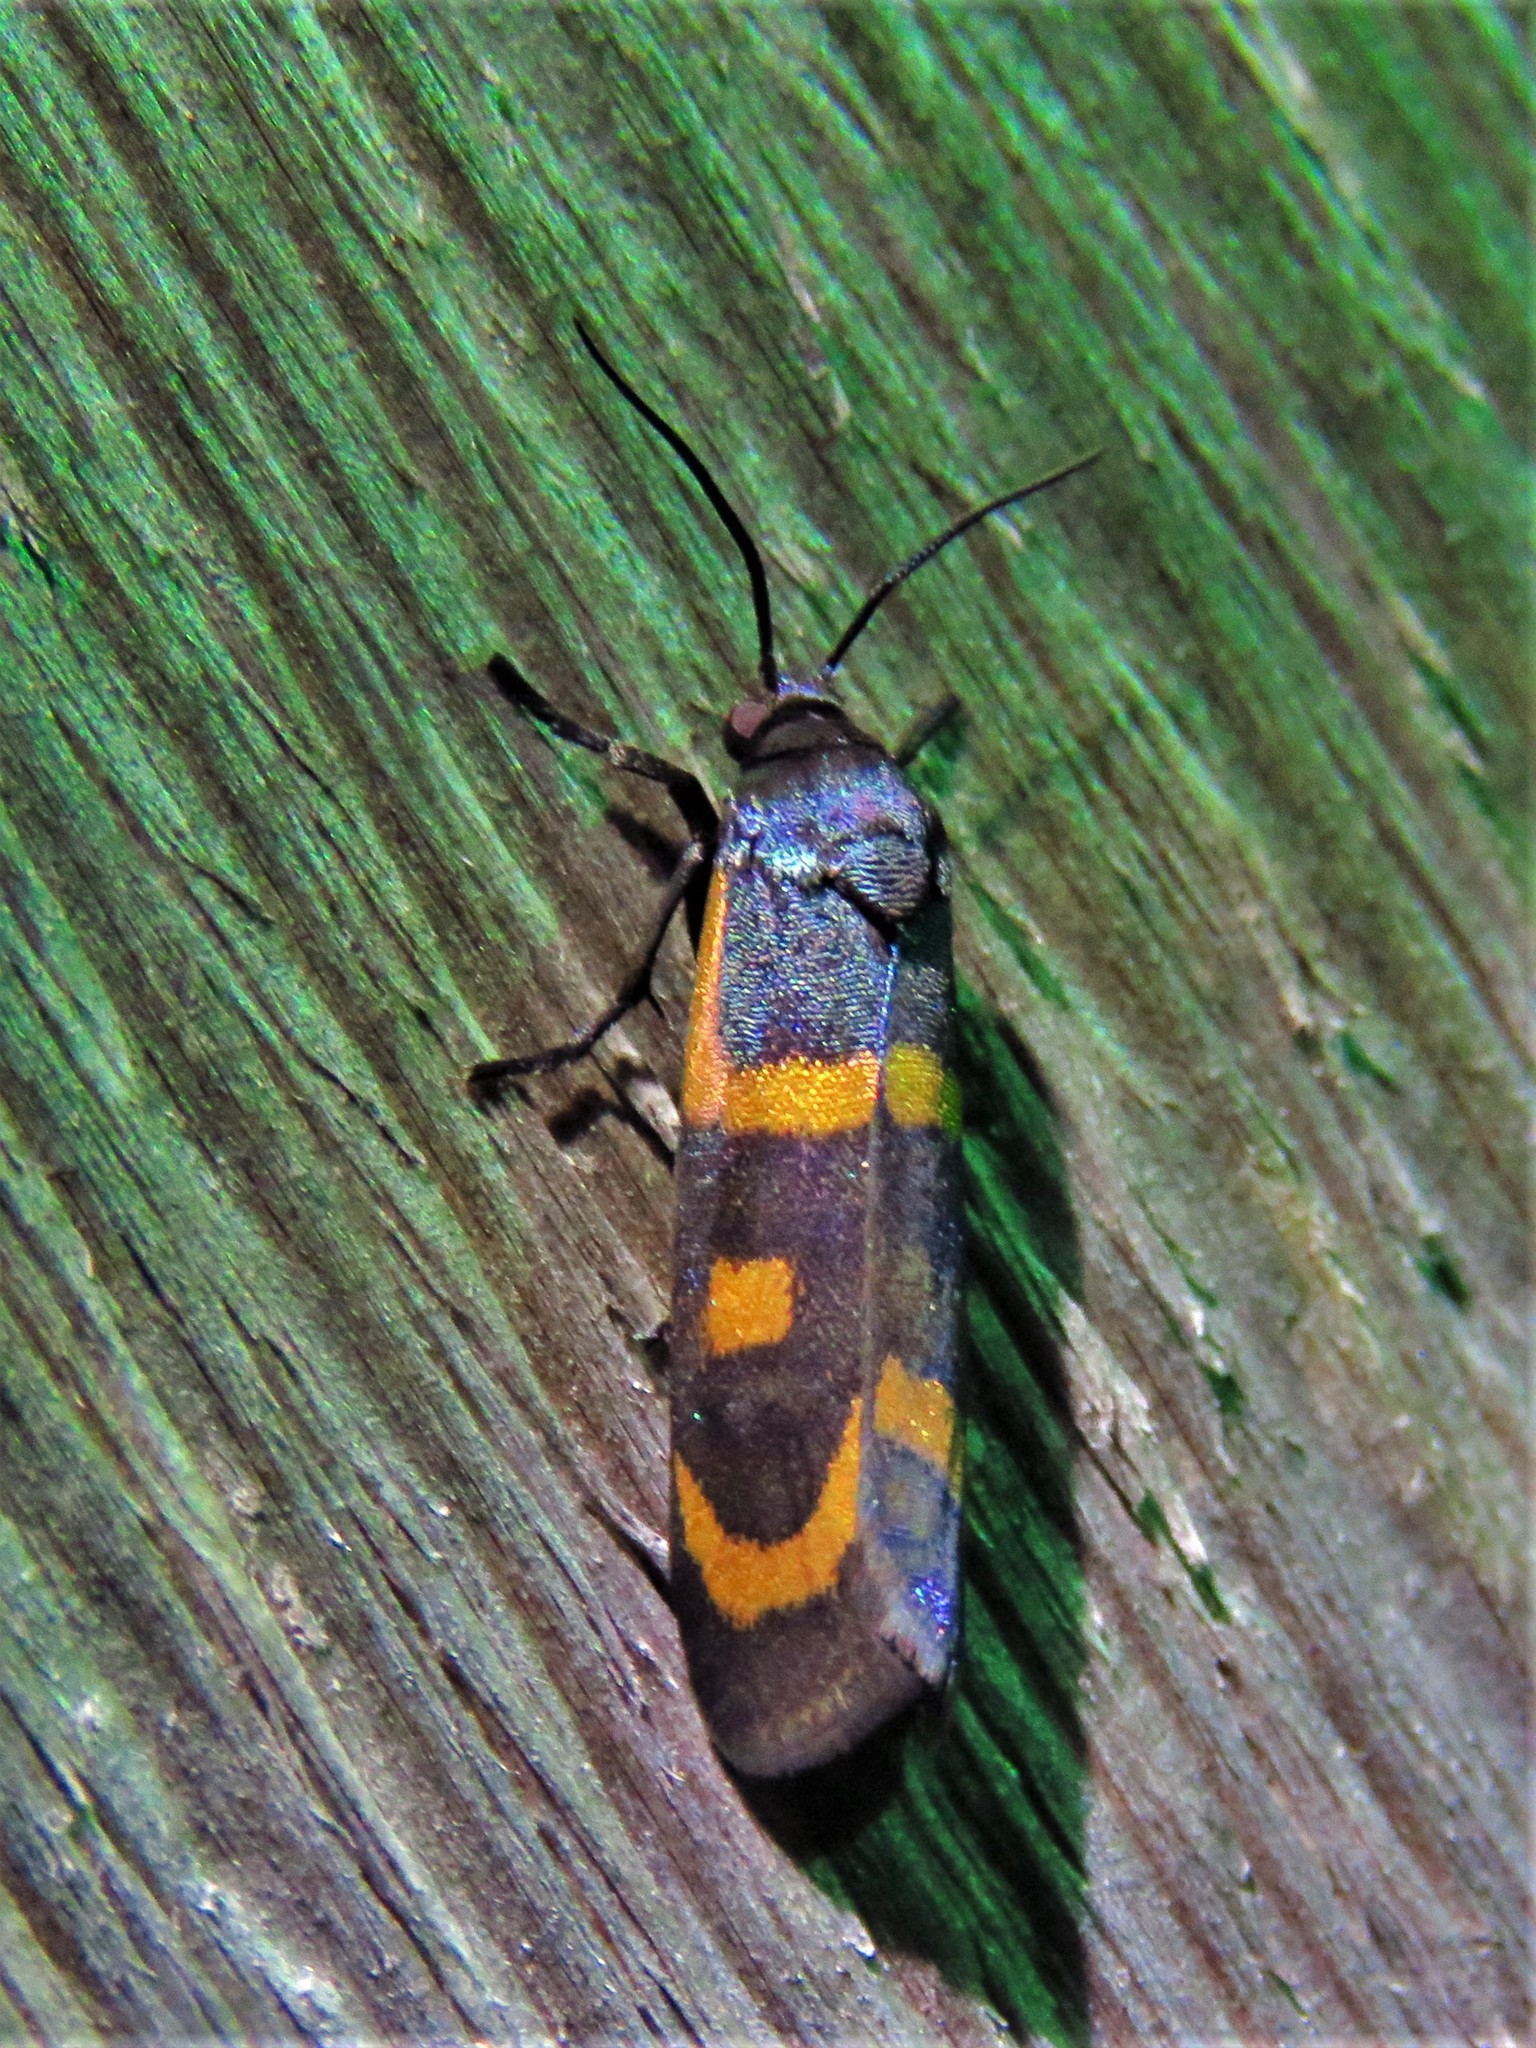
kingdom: Animalia
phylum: Arthropoda
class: Insecta
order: Lepidoptera
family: Noctuidae
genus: Cydosia
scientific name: Cydosia aurivitta
